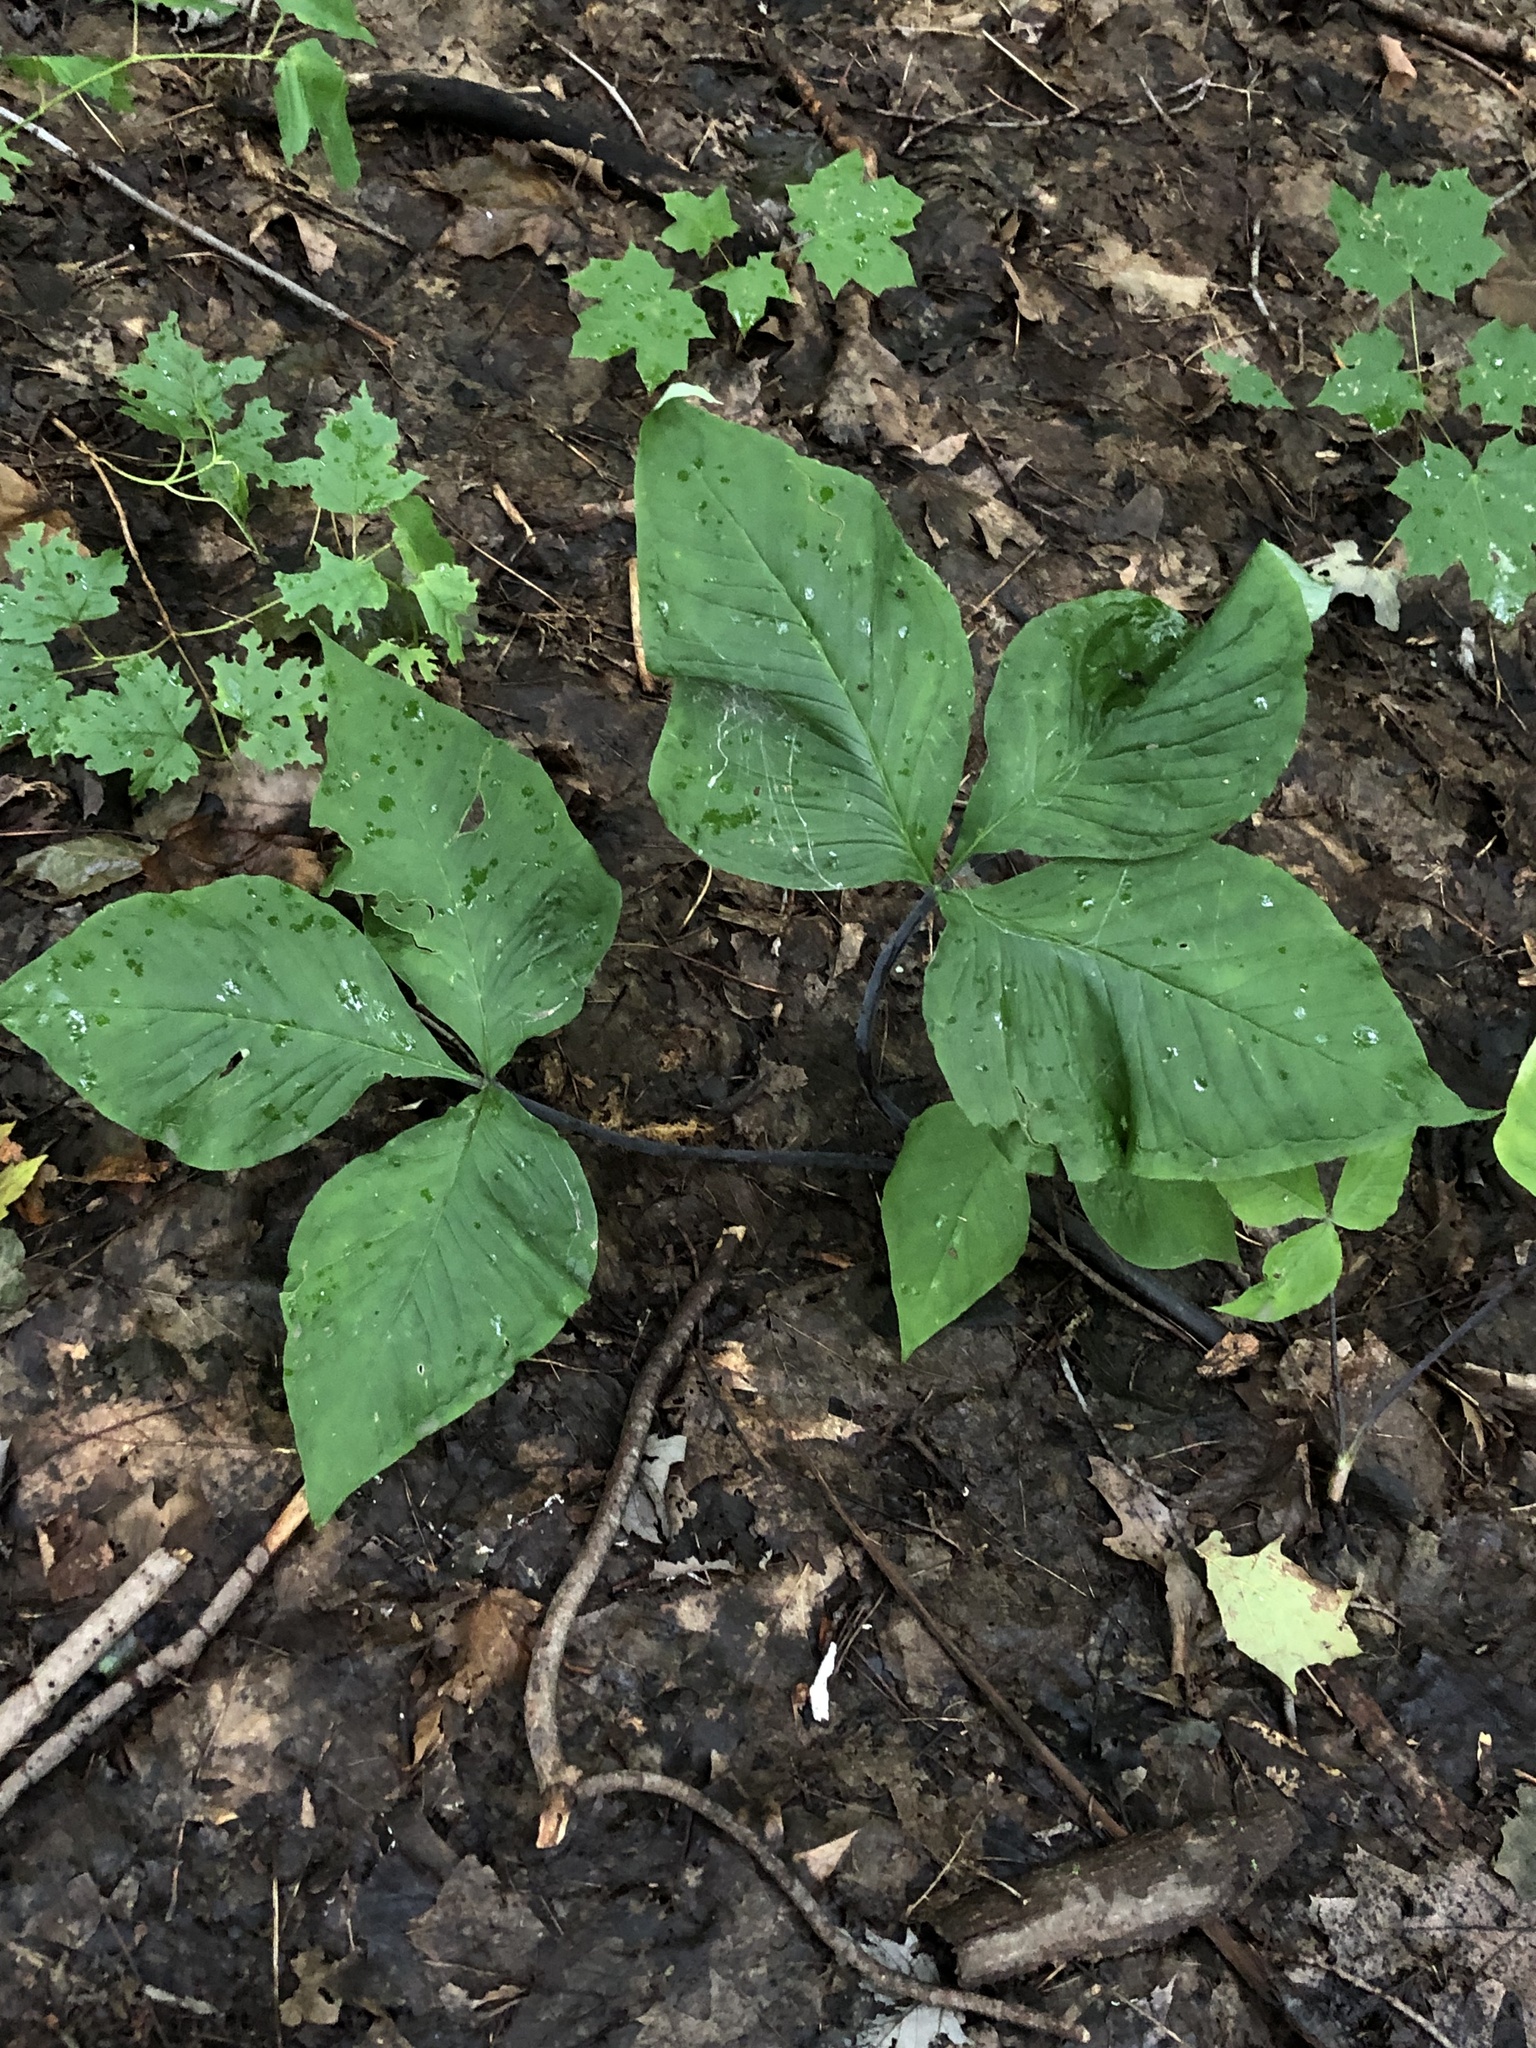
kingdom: Plantae
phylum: Tracheophyta
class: Liliopsida
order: Alismatales
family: Araceae
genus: Arisaema
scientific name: Arisaema triphyllum
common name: Jack-in-the-pulpit
